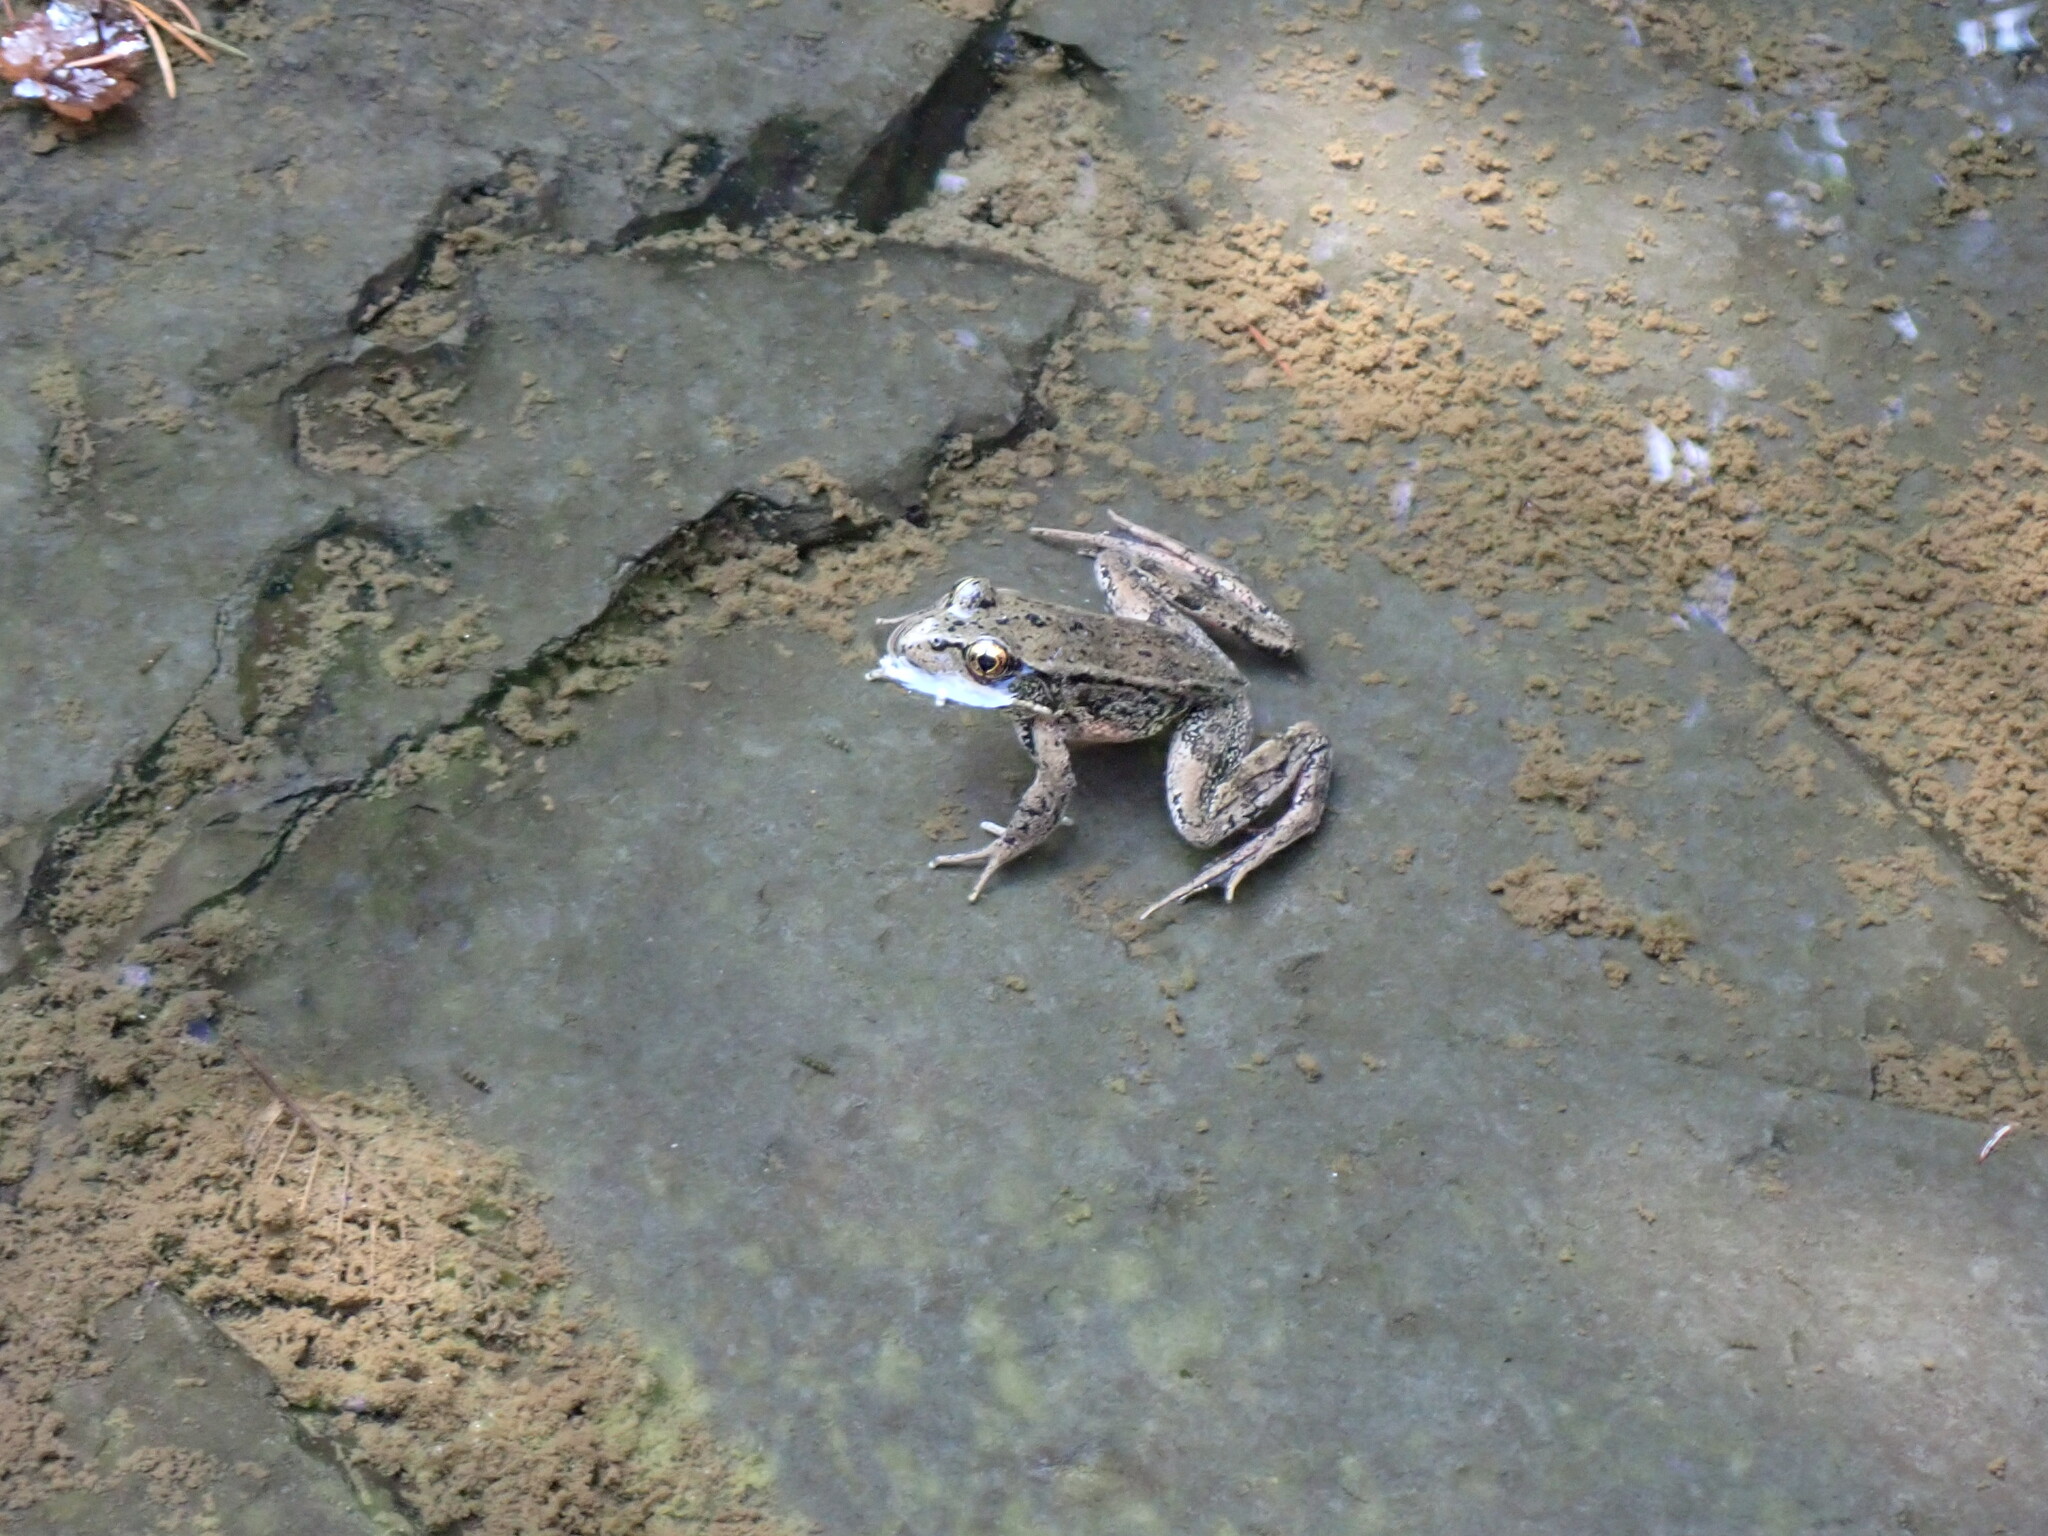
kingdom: Animalia
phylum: Chordata
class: Amphibia
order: Anura
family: Ranidae
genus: Rana
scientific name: Rana aurora
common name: Red-legged frog
